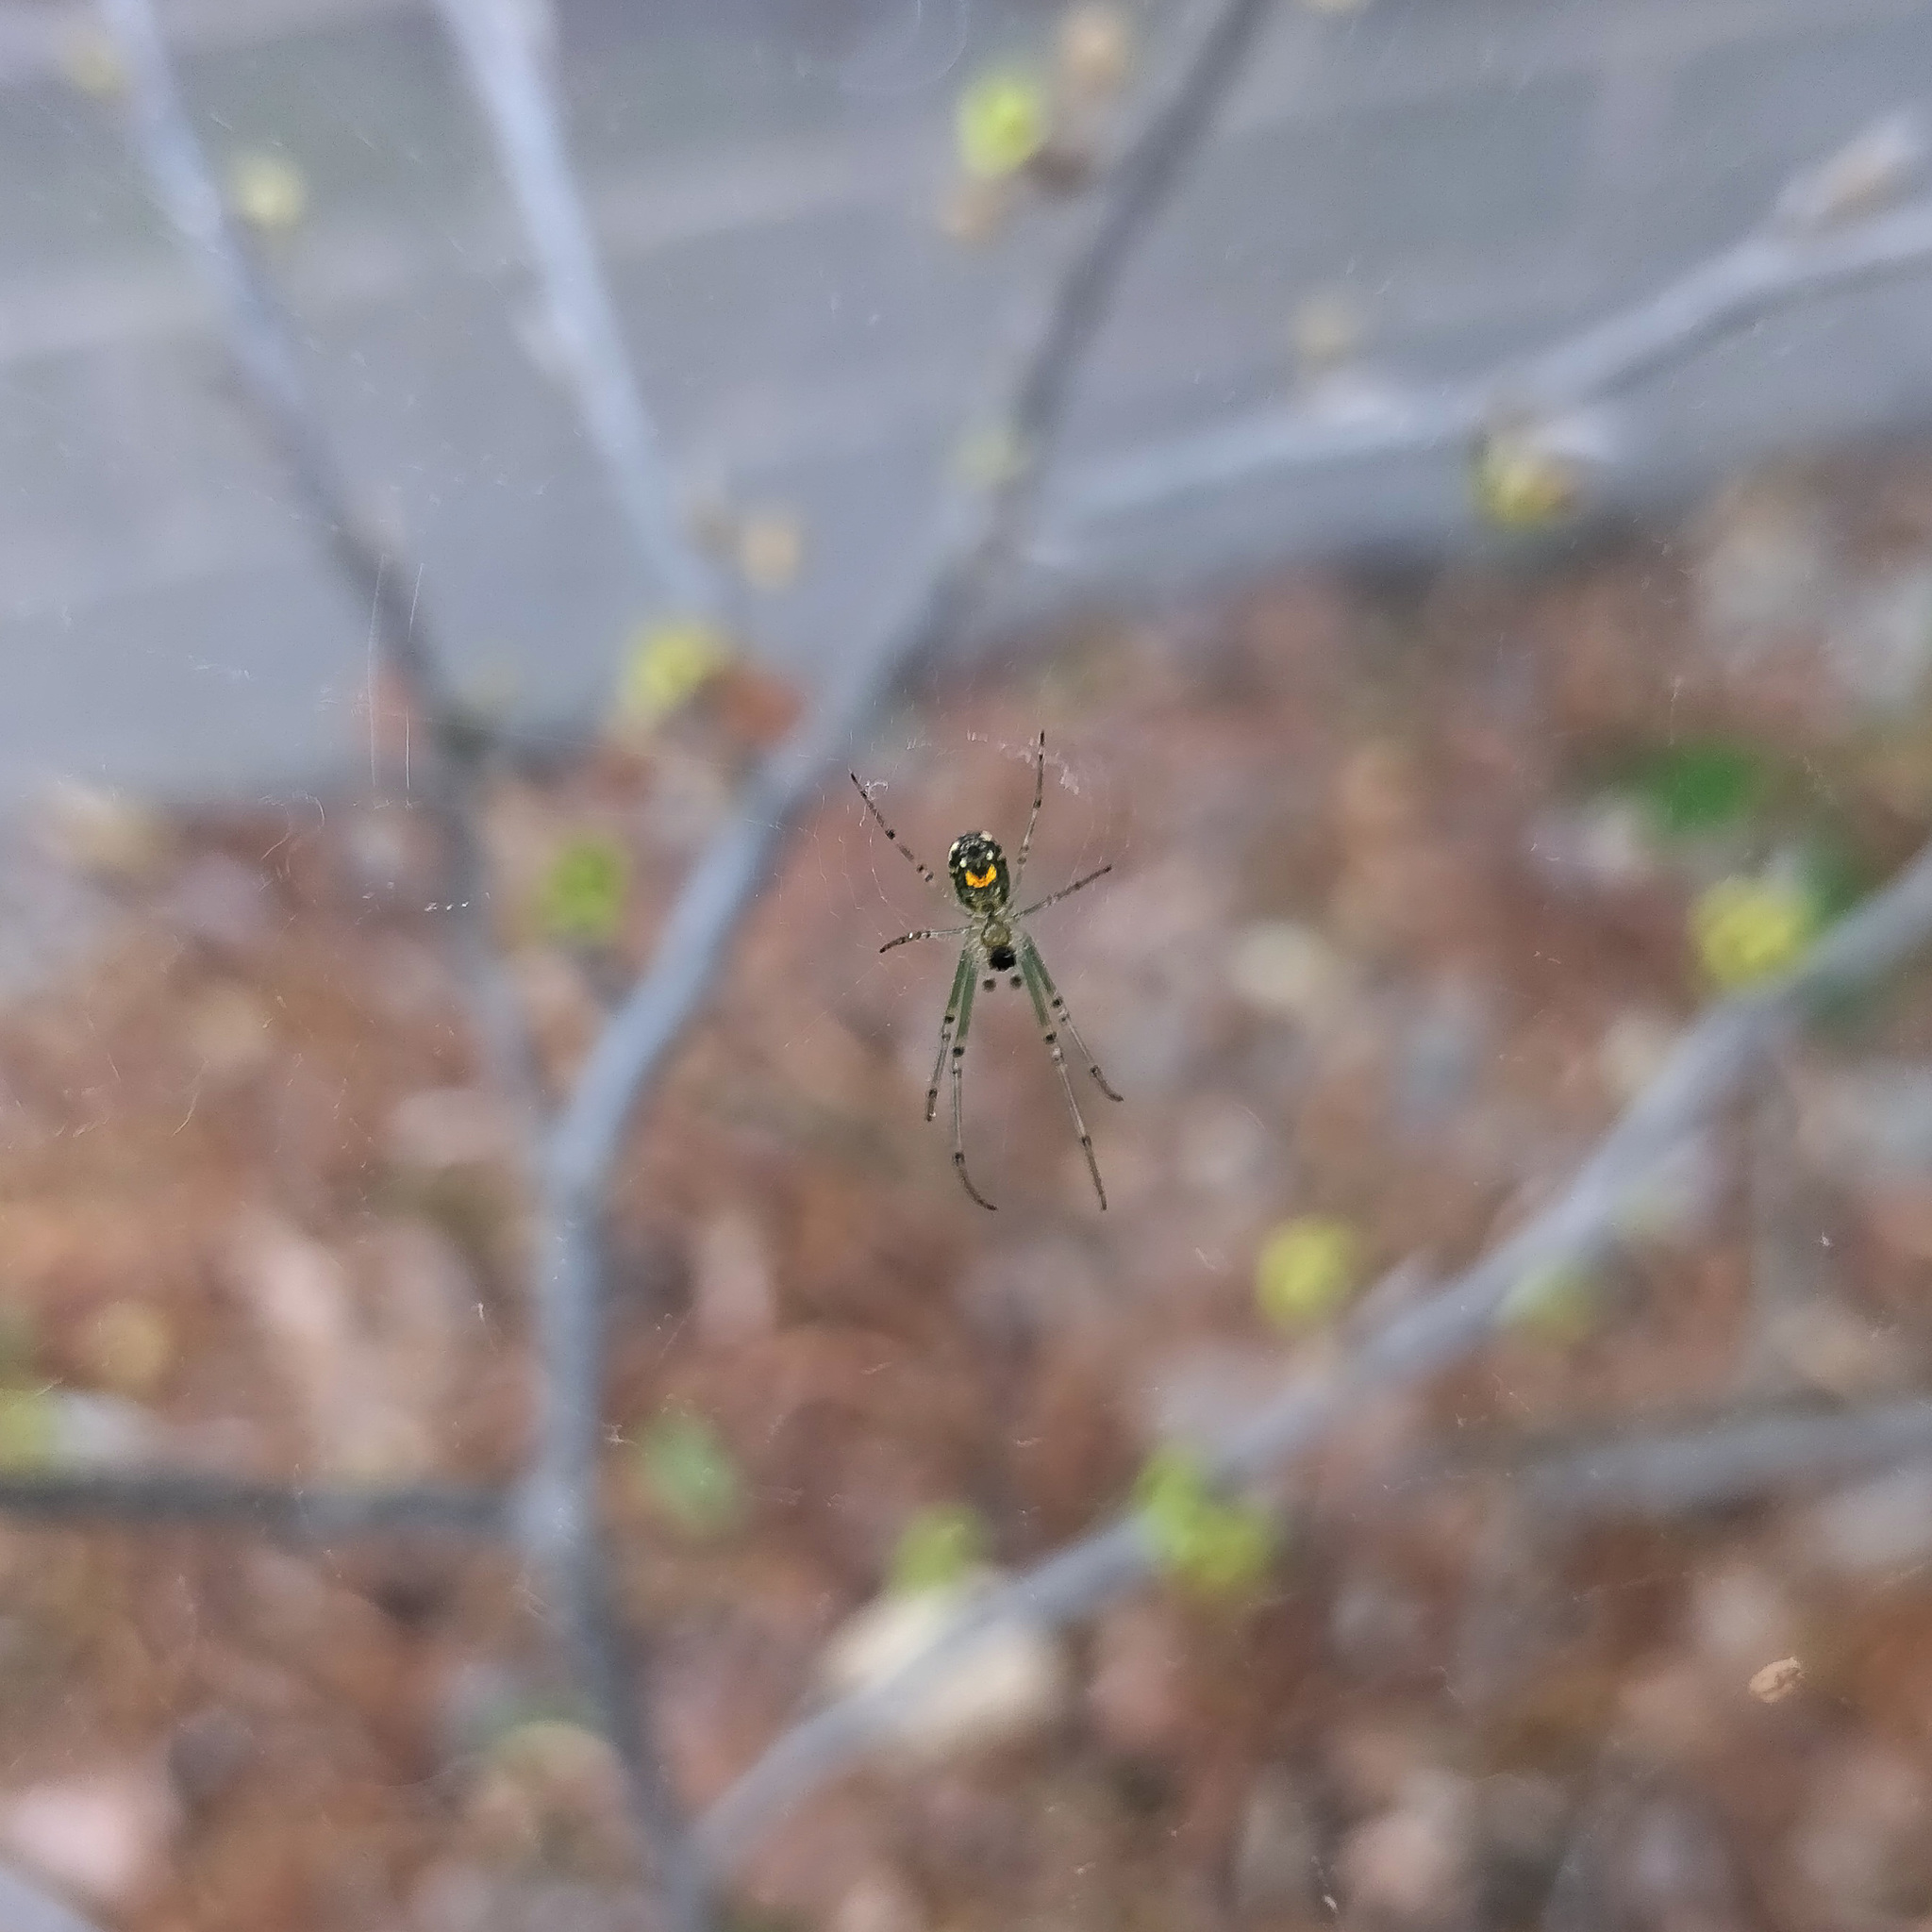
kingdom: Animalia
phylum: Arthropoda
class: Arachnida
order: Araneae
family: Tetragnathidae
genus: Leucauge
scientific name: Leucauge venusta
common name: Longjawed orb weavers
